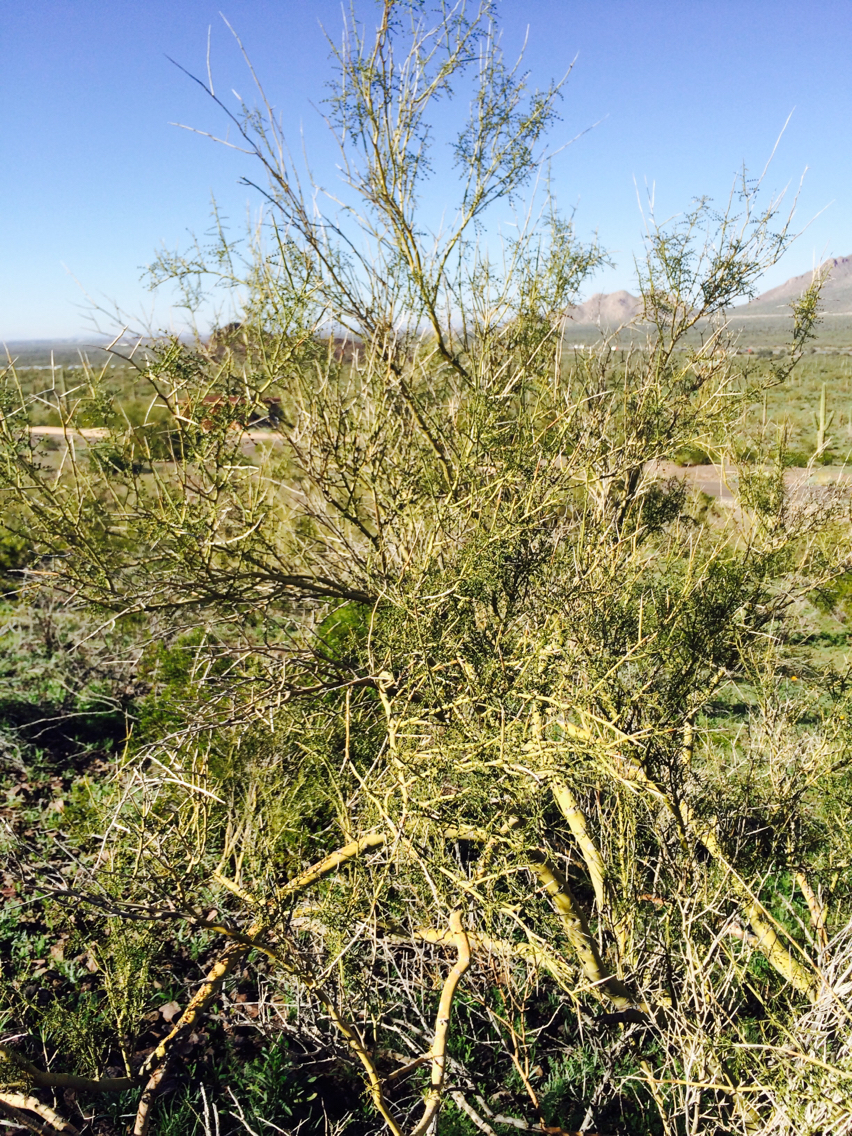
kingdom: Plantae
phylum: Tracheophyta
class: Magnoliopsida
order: Fabales
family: Fabaceae
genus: Parkinsonia
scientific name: Parkinsonia microphylla
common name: Yellow paloverde
